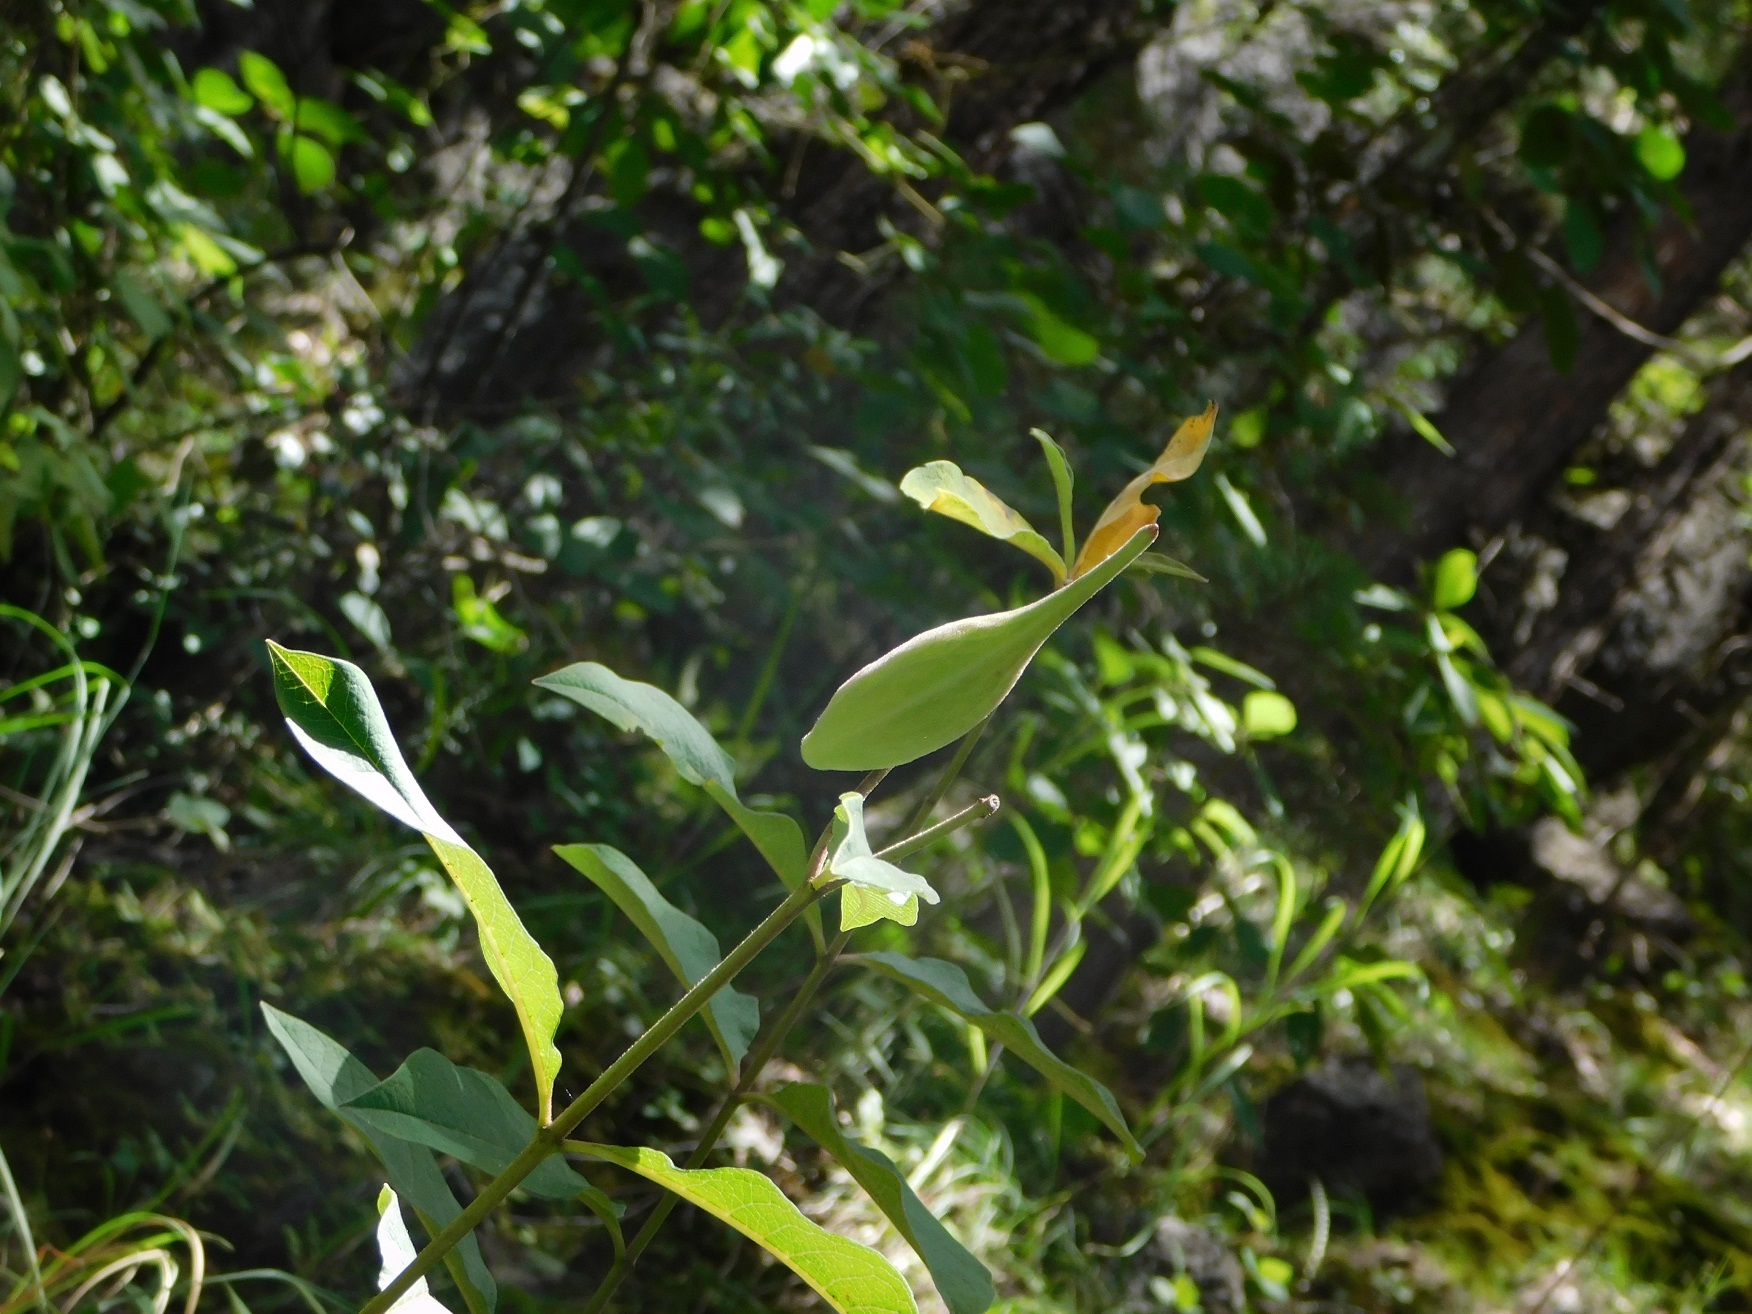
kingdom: Plantae
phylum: Tracheophyta
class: Magnoliopsida
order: Gentianales
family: Apocynaceae
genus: Asclepias
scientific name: Asclepias similis
